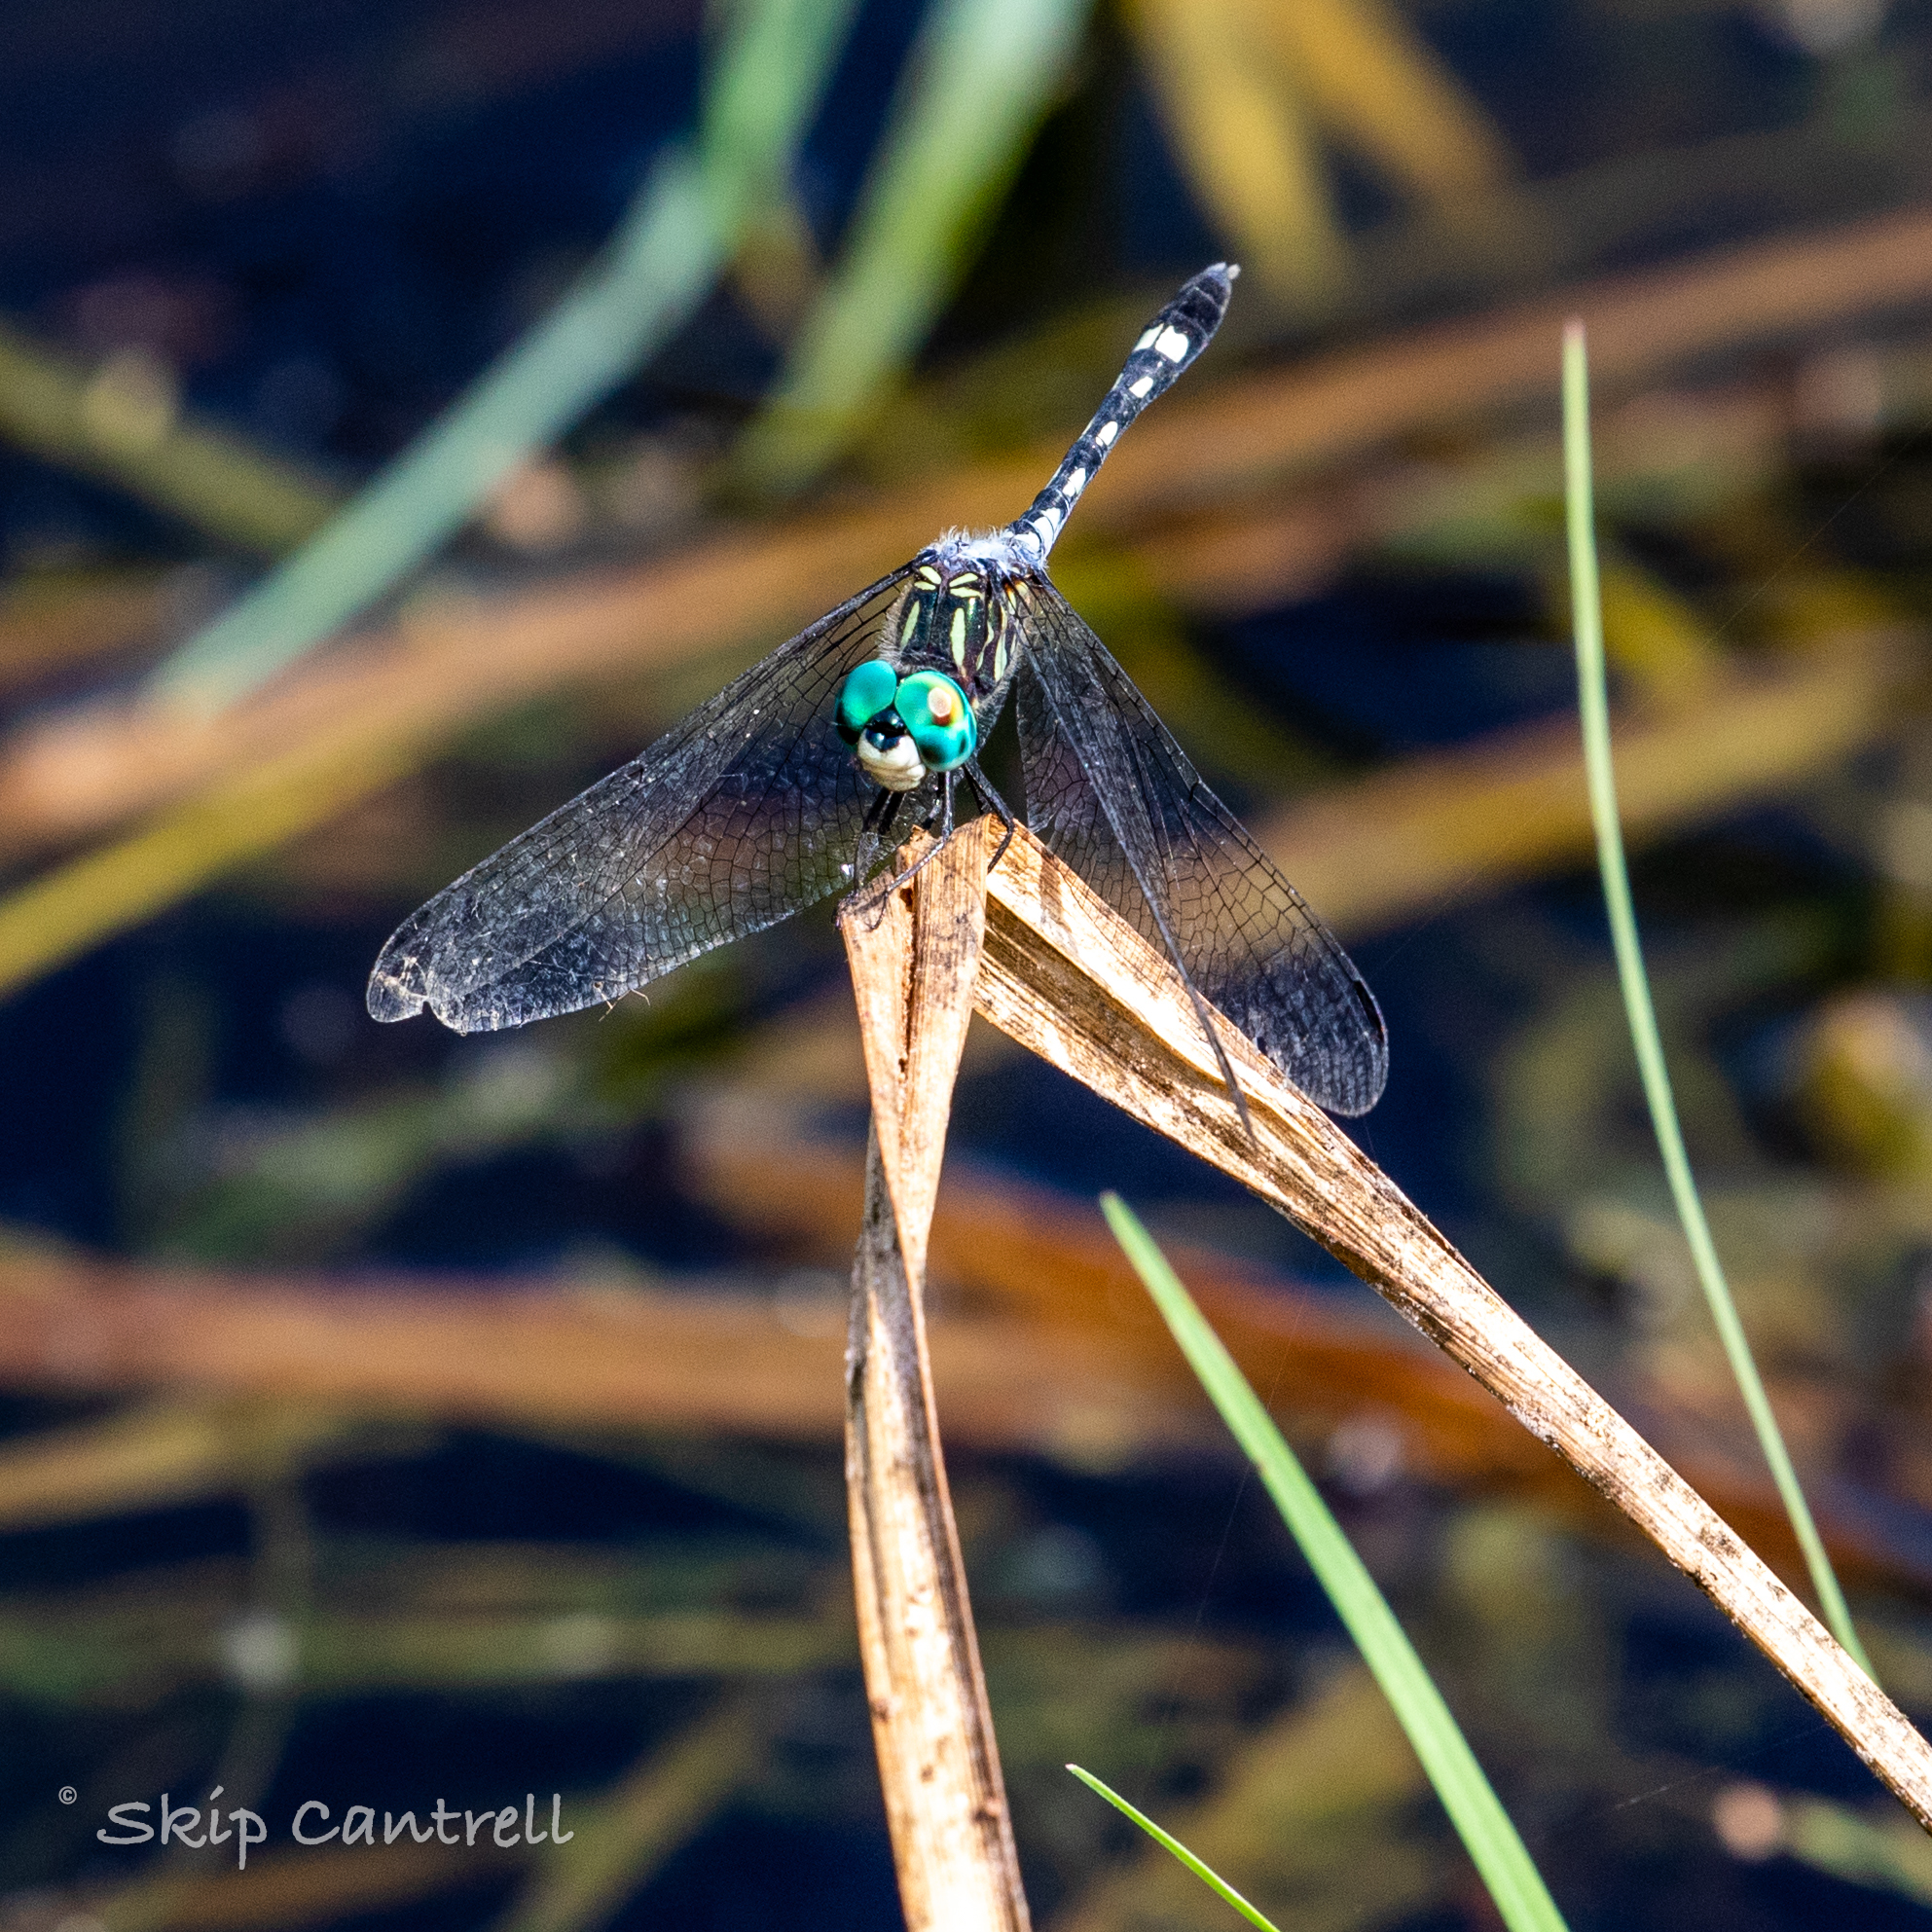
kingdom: Animalia
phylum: Arthropoda
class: Insecta
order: Odonata
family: Libellulidae
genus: Micrathyria
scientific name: Micrathyria hagenii
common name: Thornbush dasher
